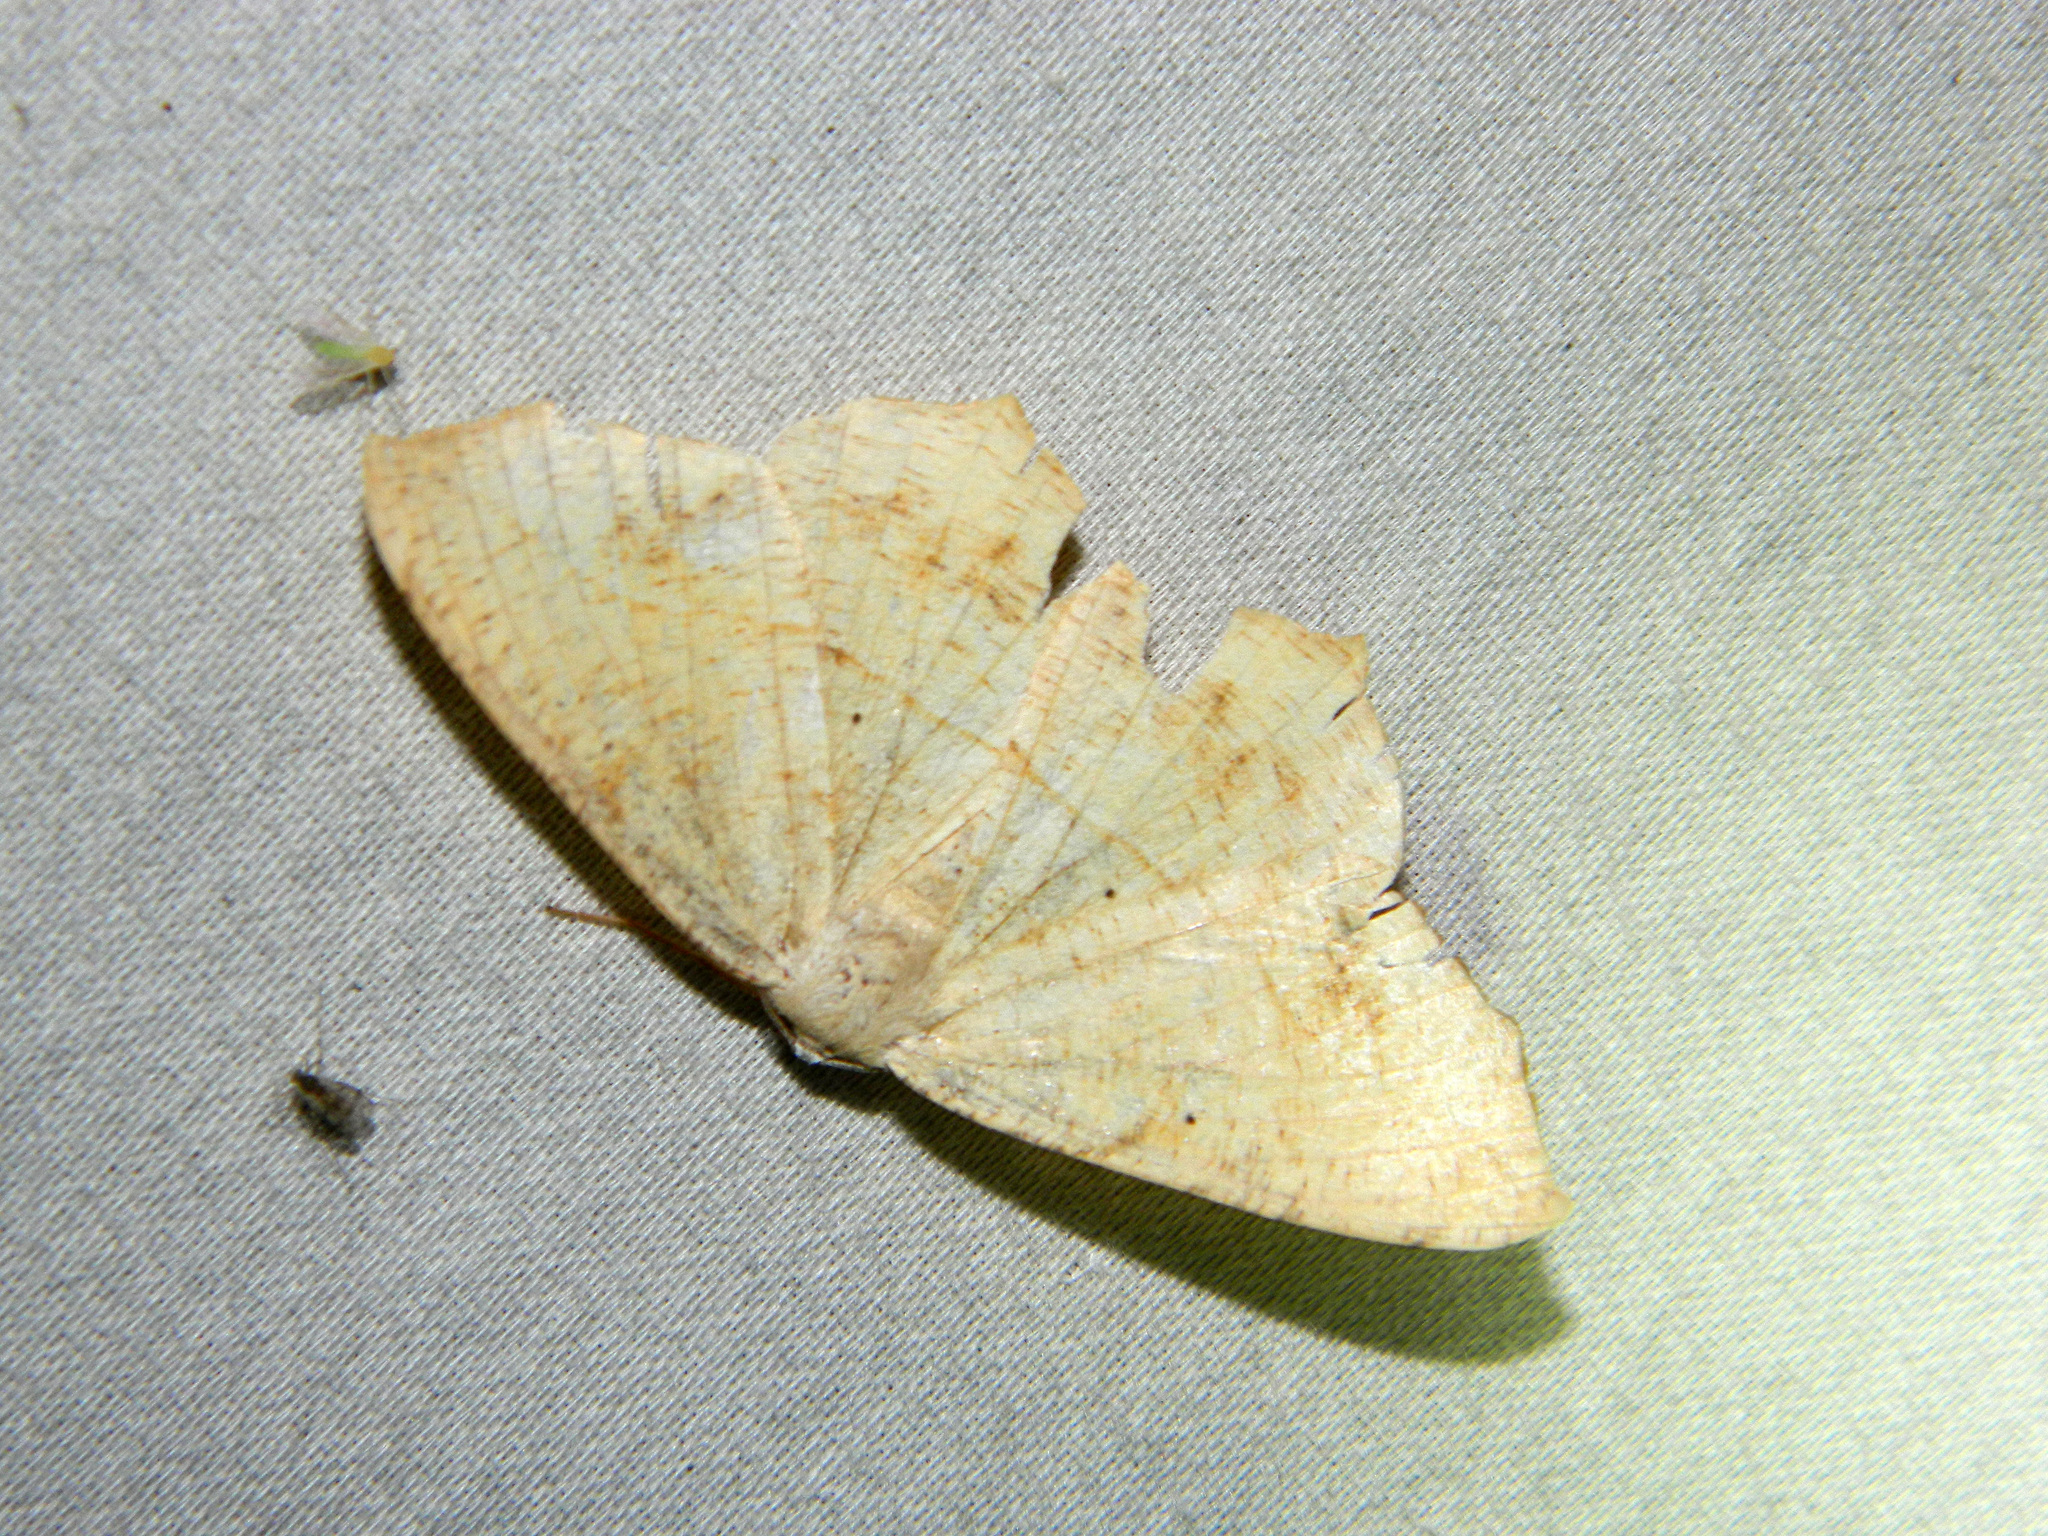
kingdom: Animalia
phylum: Arthropoda
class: Insecta
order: Lepidoptera
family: Geometridae
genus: Prochoerodes
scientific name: Prochoerodes lineola
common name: Large maple spanworm
